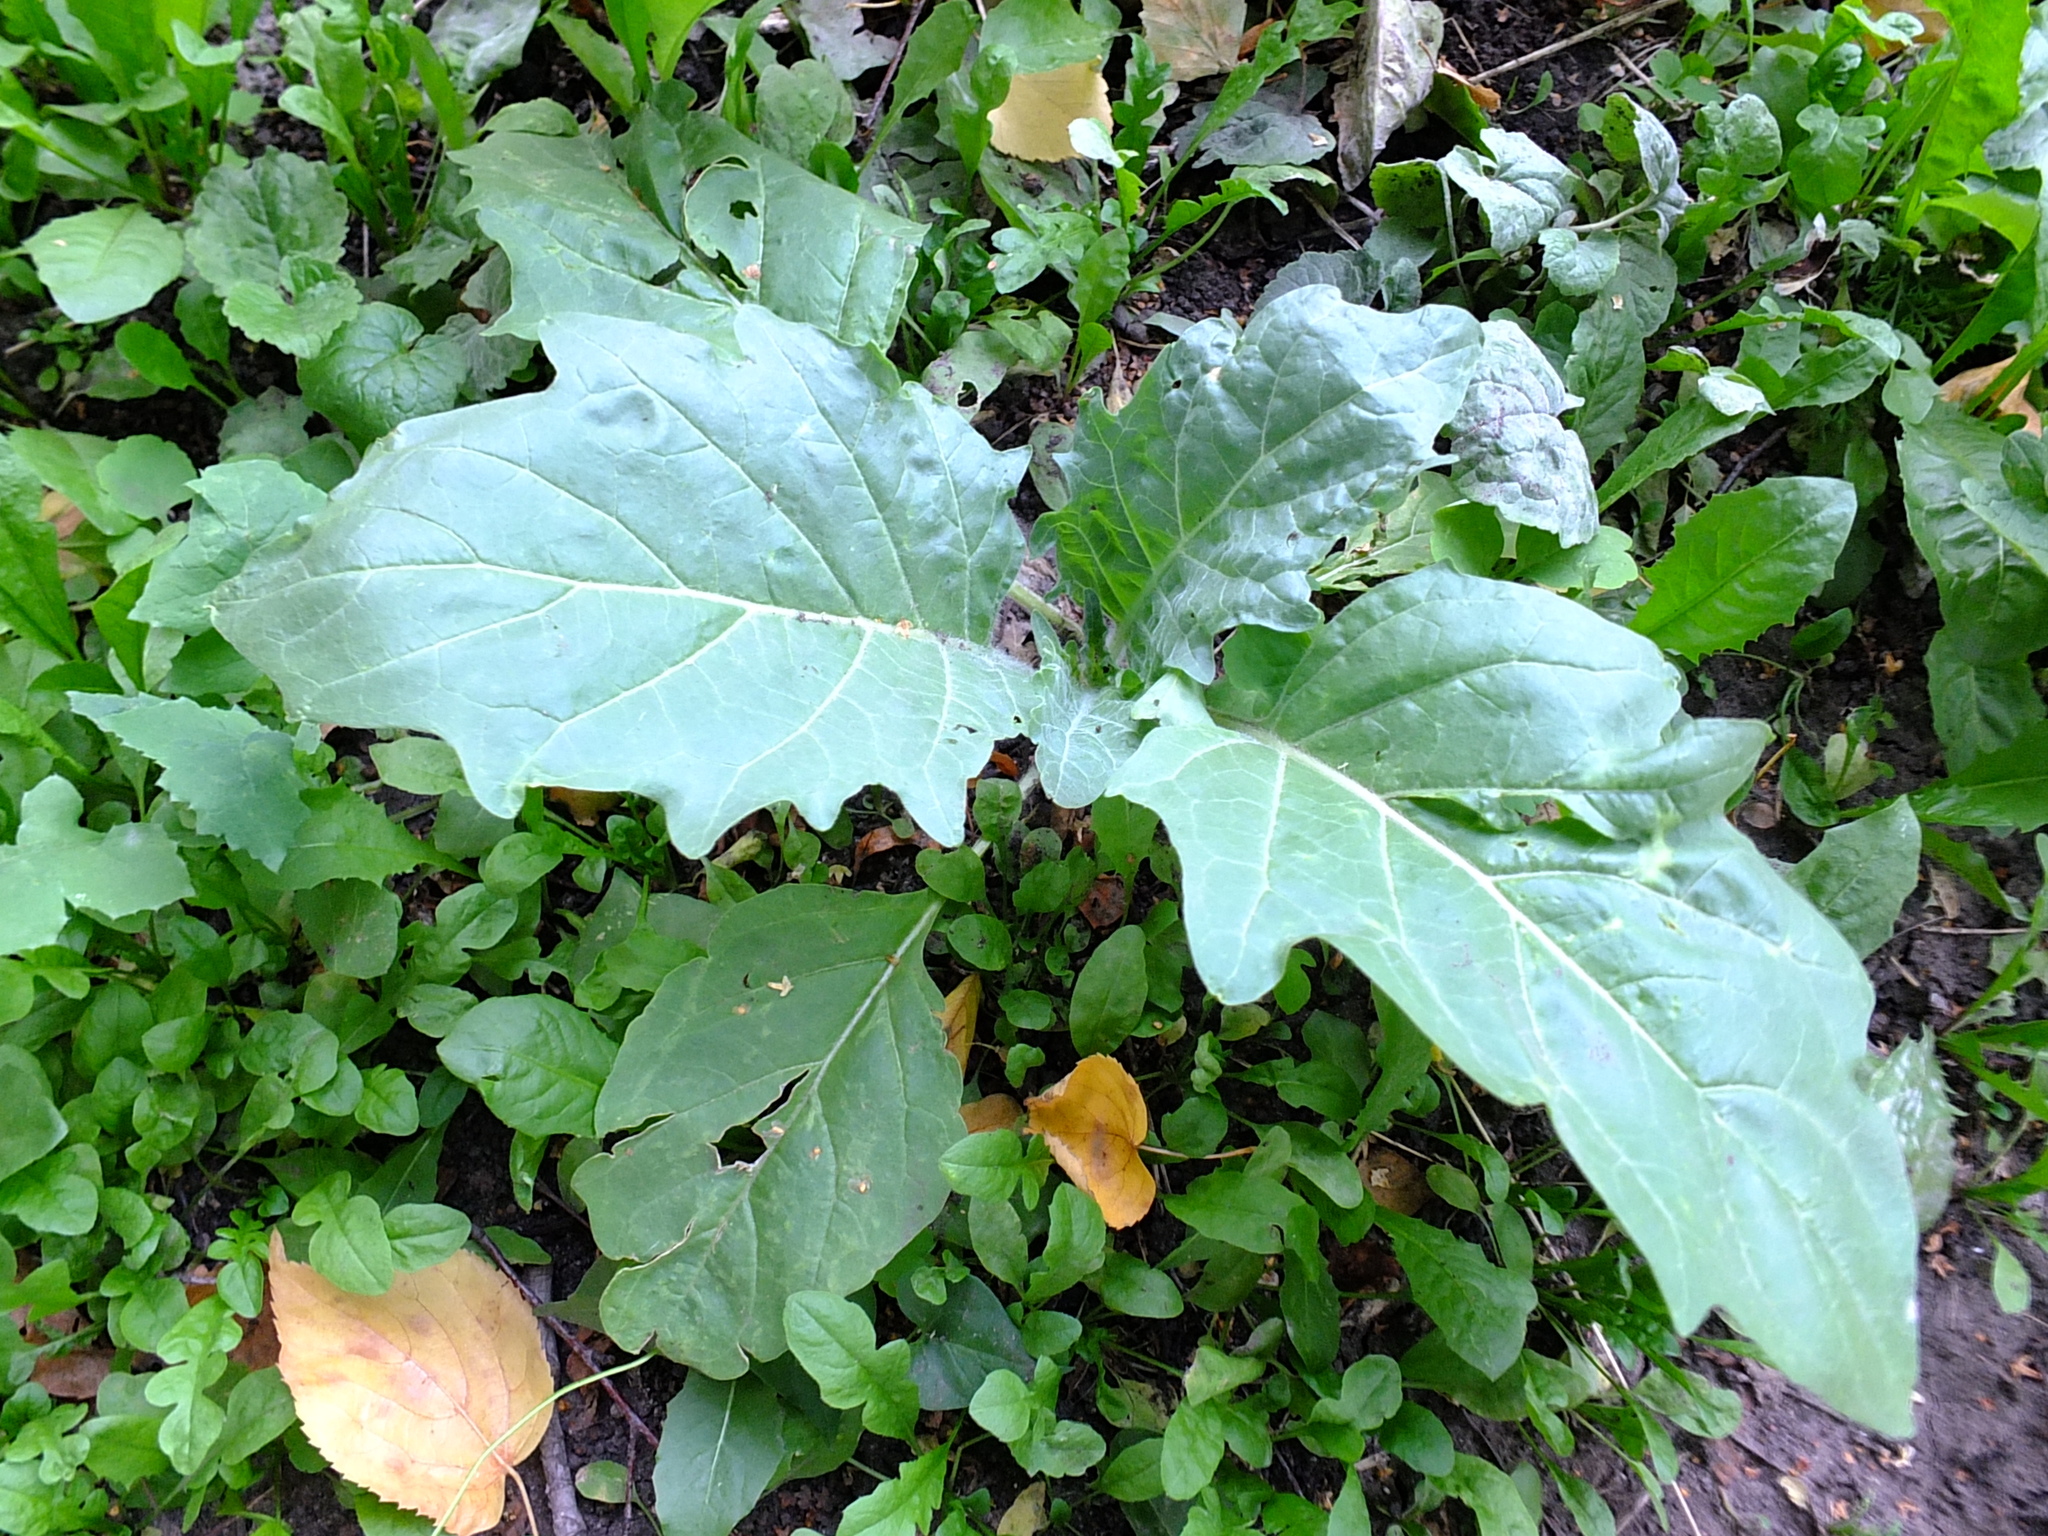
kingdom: Plantae
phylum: Tracheophyta
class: Magnoliopsida
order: Solanales
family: Solanaceae
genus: Hyoscyamus
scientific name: Hyoscyamus niger
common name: Henbane
